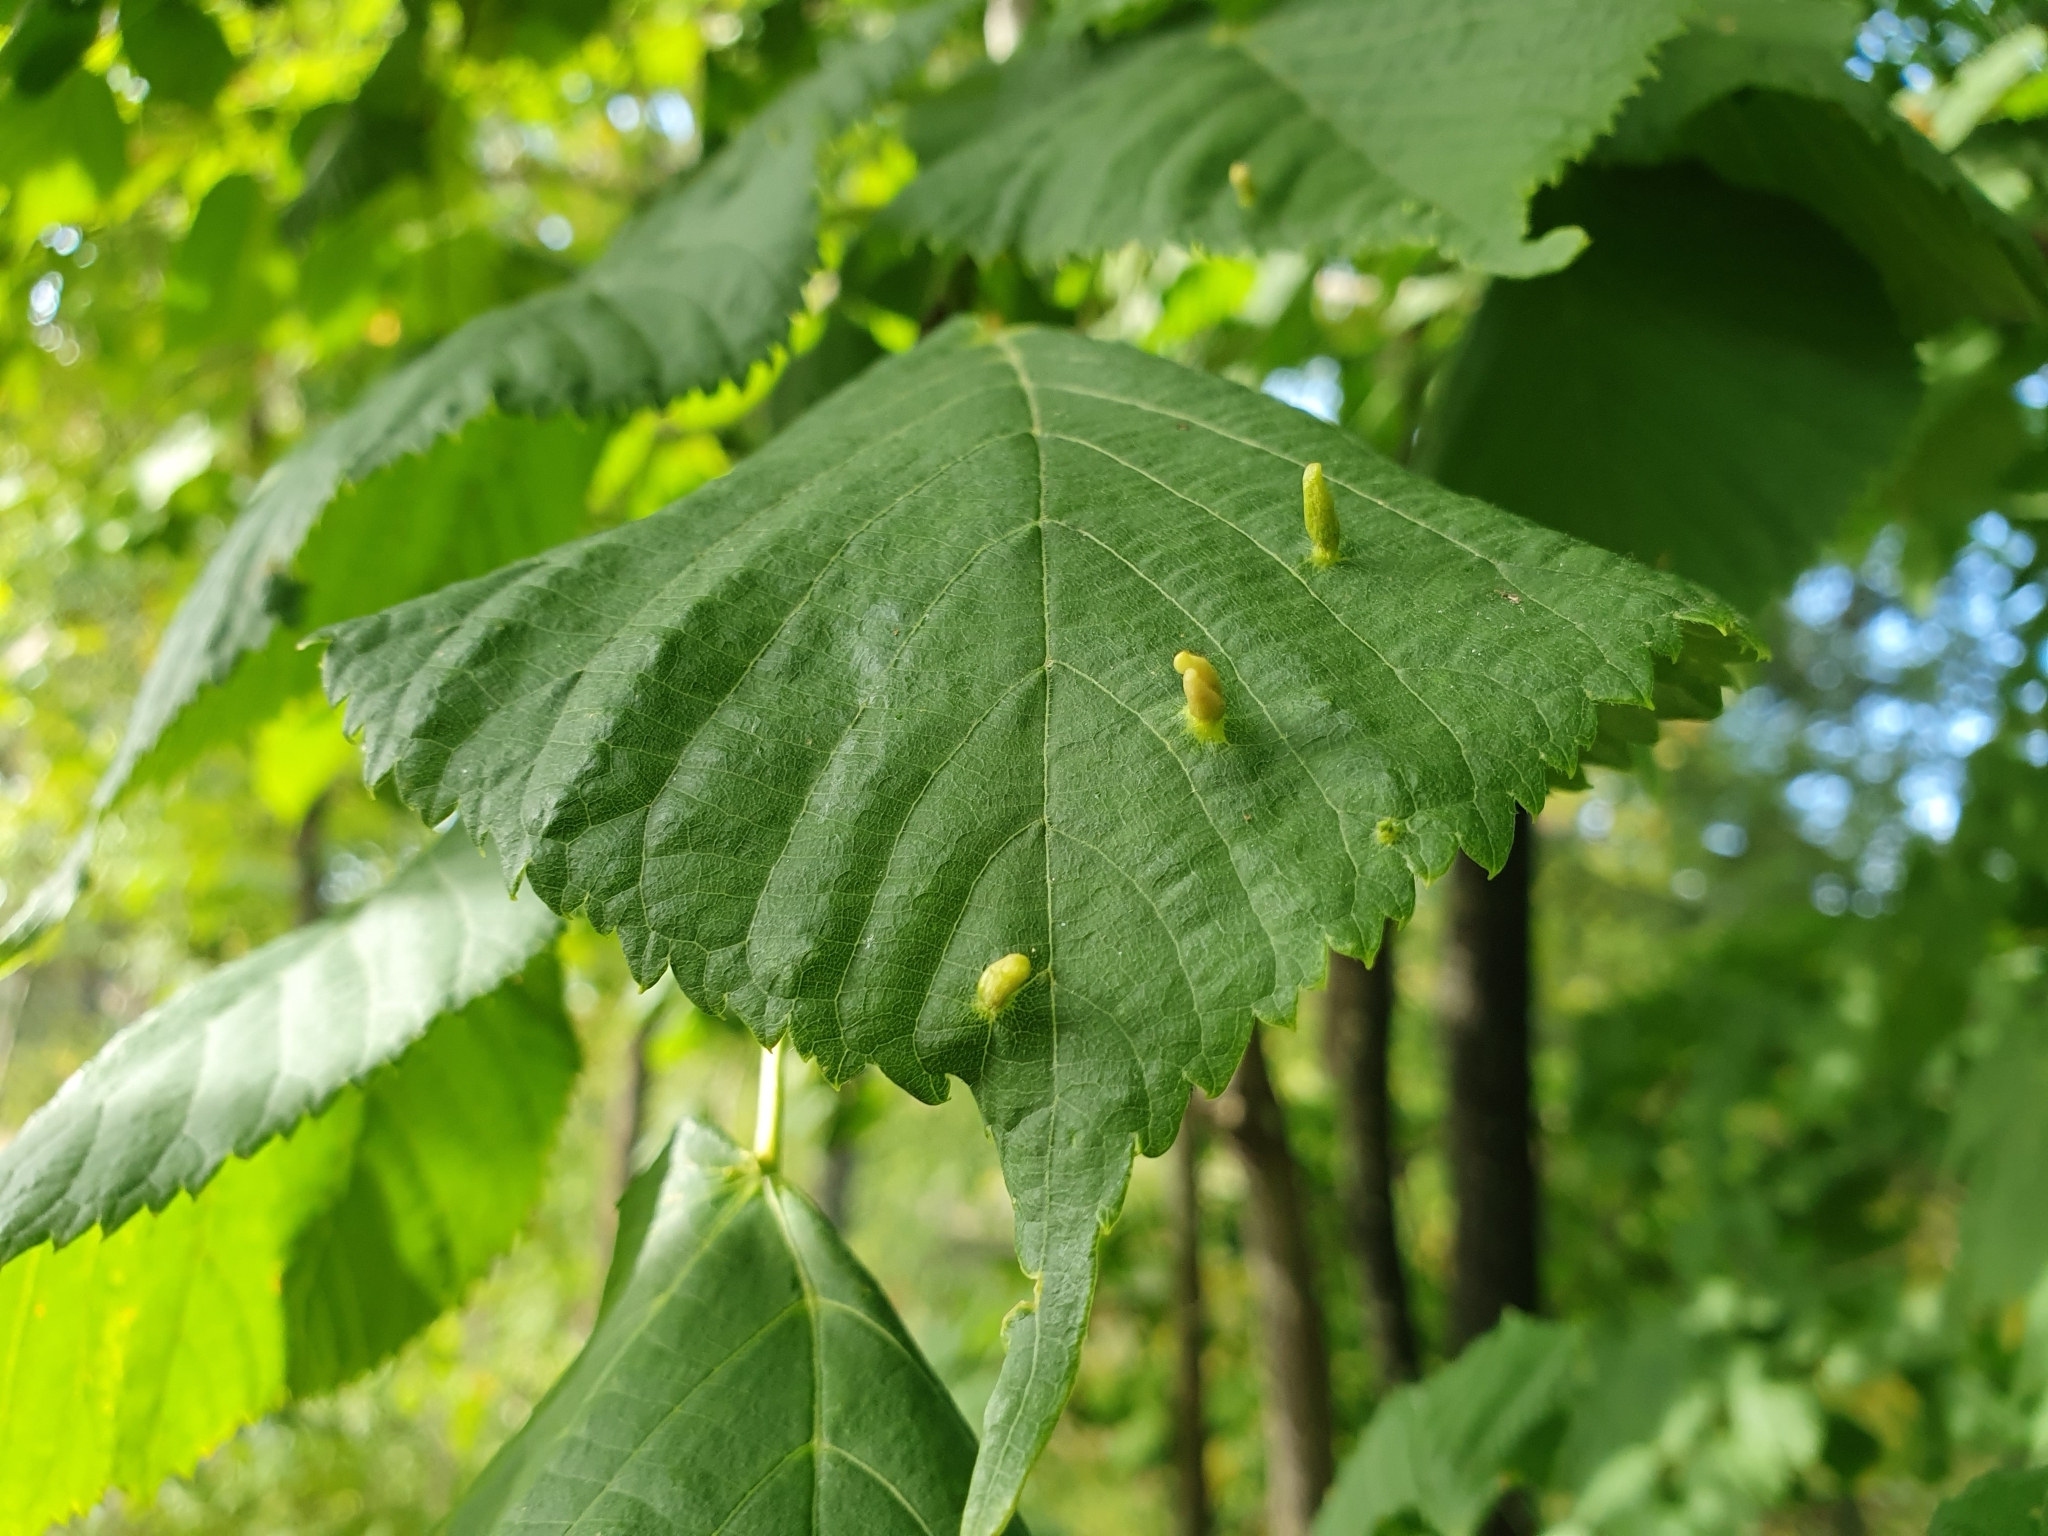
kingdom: Animalia
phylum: Arthropoda
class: Arachnida
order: Trombidiformes
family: Eriophyidae
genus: Eriophyes
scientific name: Eriophyes tiliae
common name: Red nail gall mite
